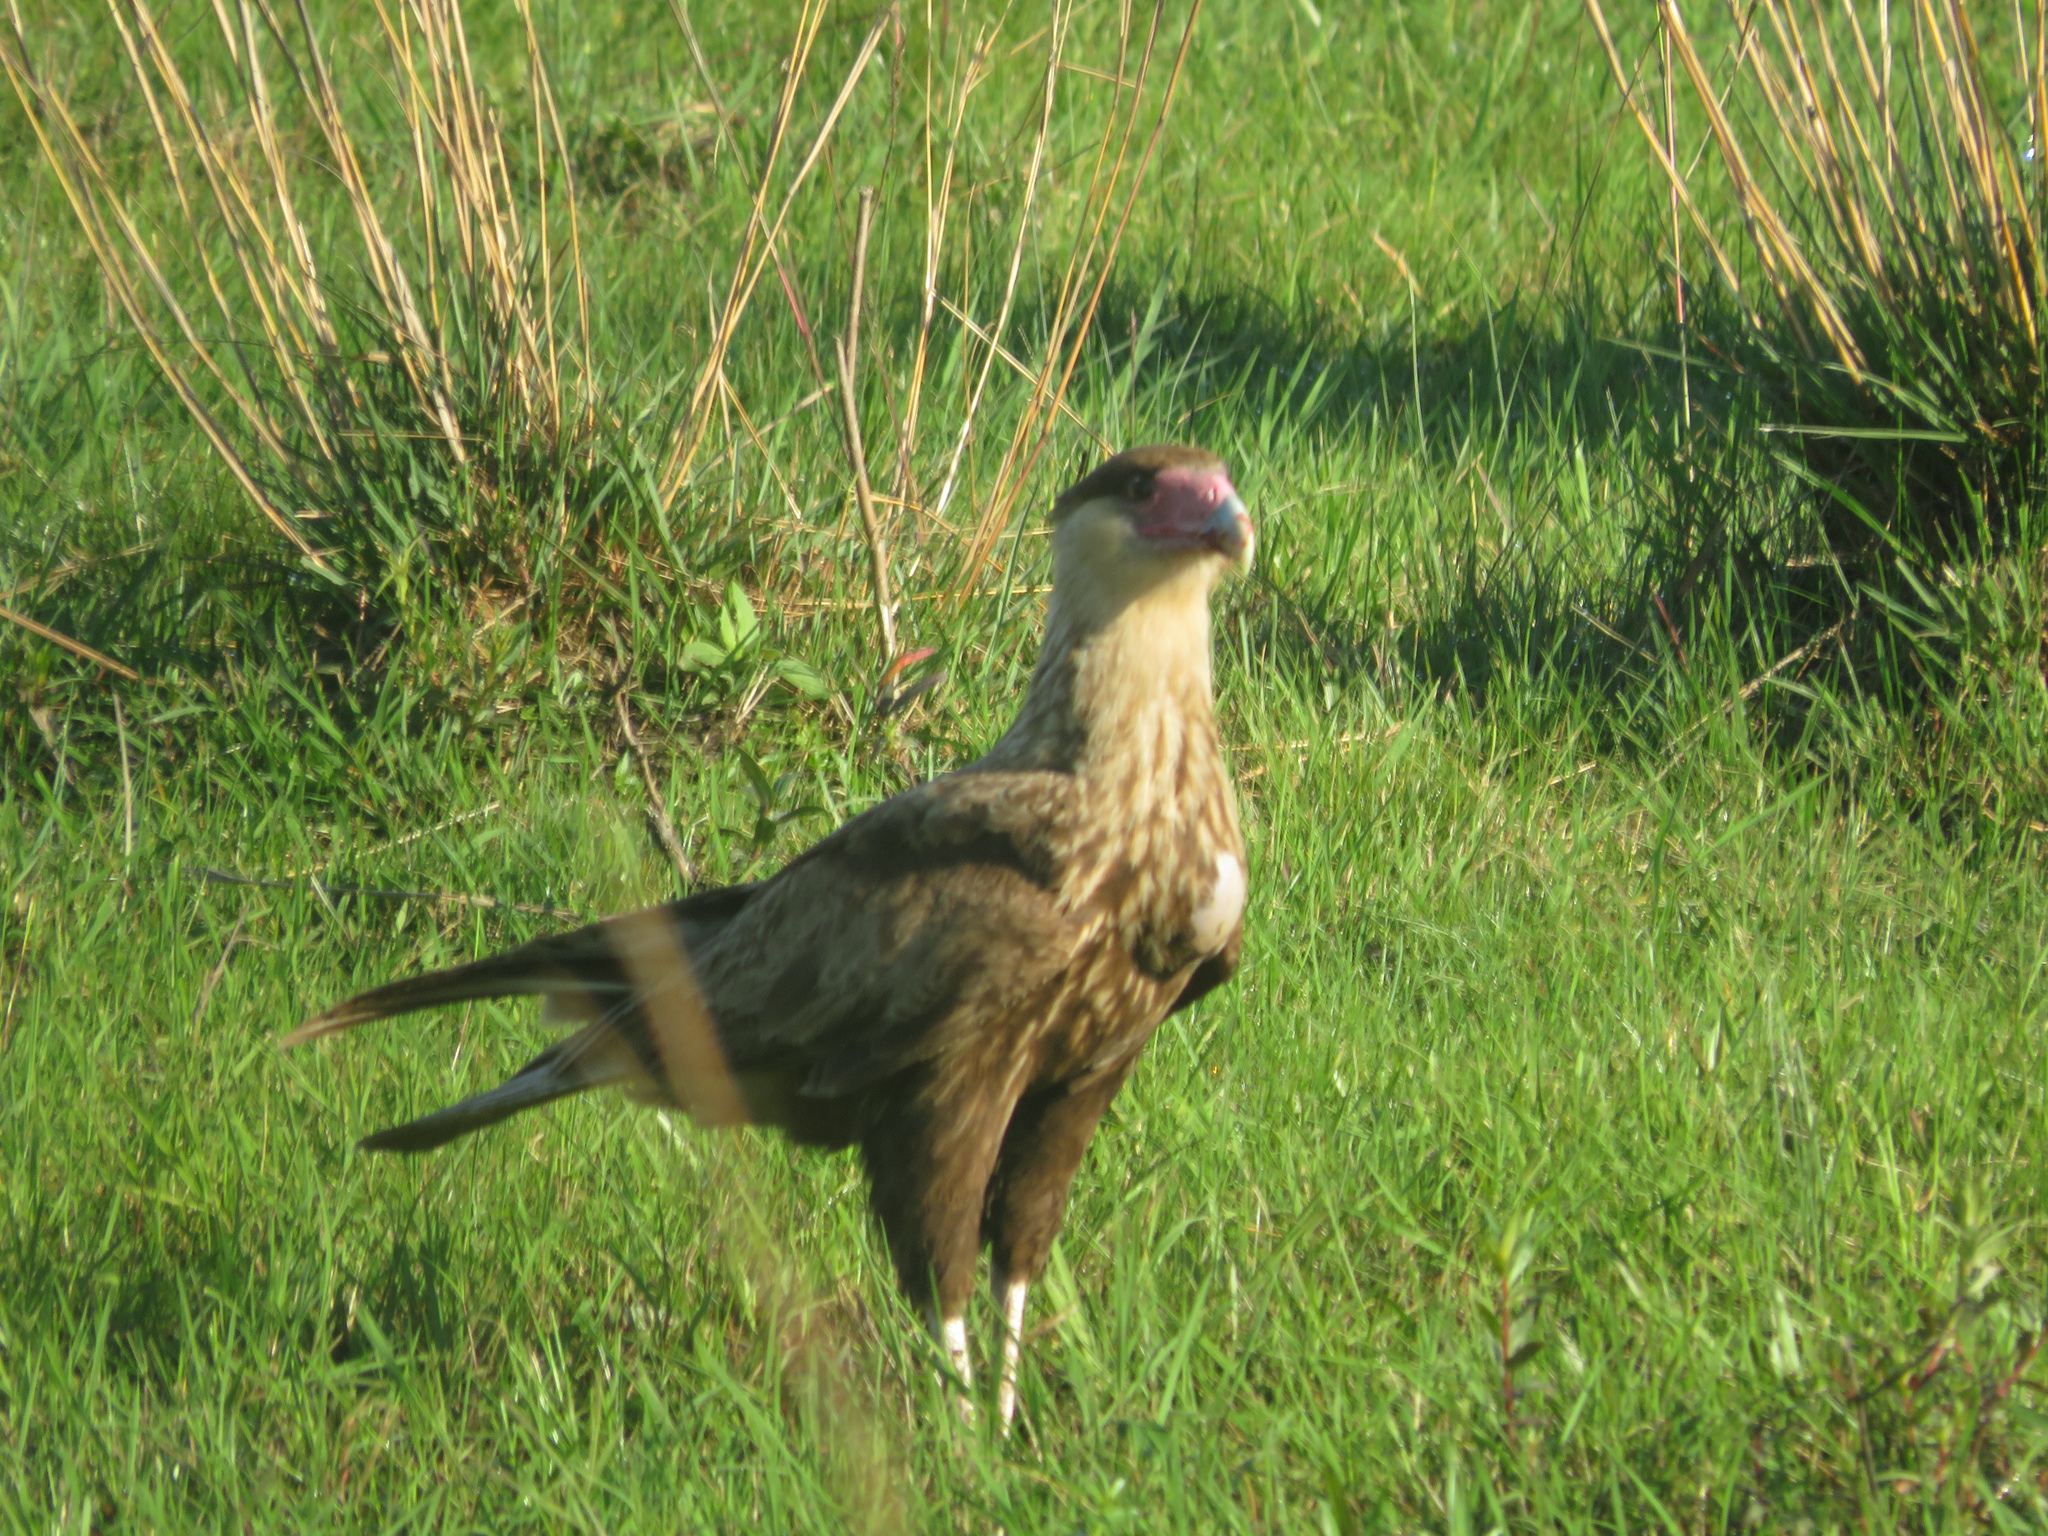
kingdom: Animalia
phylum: Chordata
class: Aves
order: Falconiformes
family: Falconidae
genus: Caracara
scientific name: Caracara plancus
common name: Southern caracara
